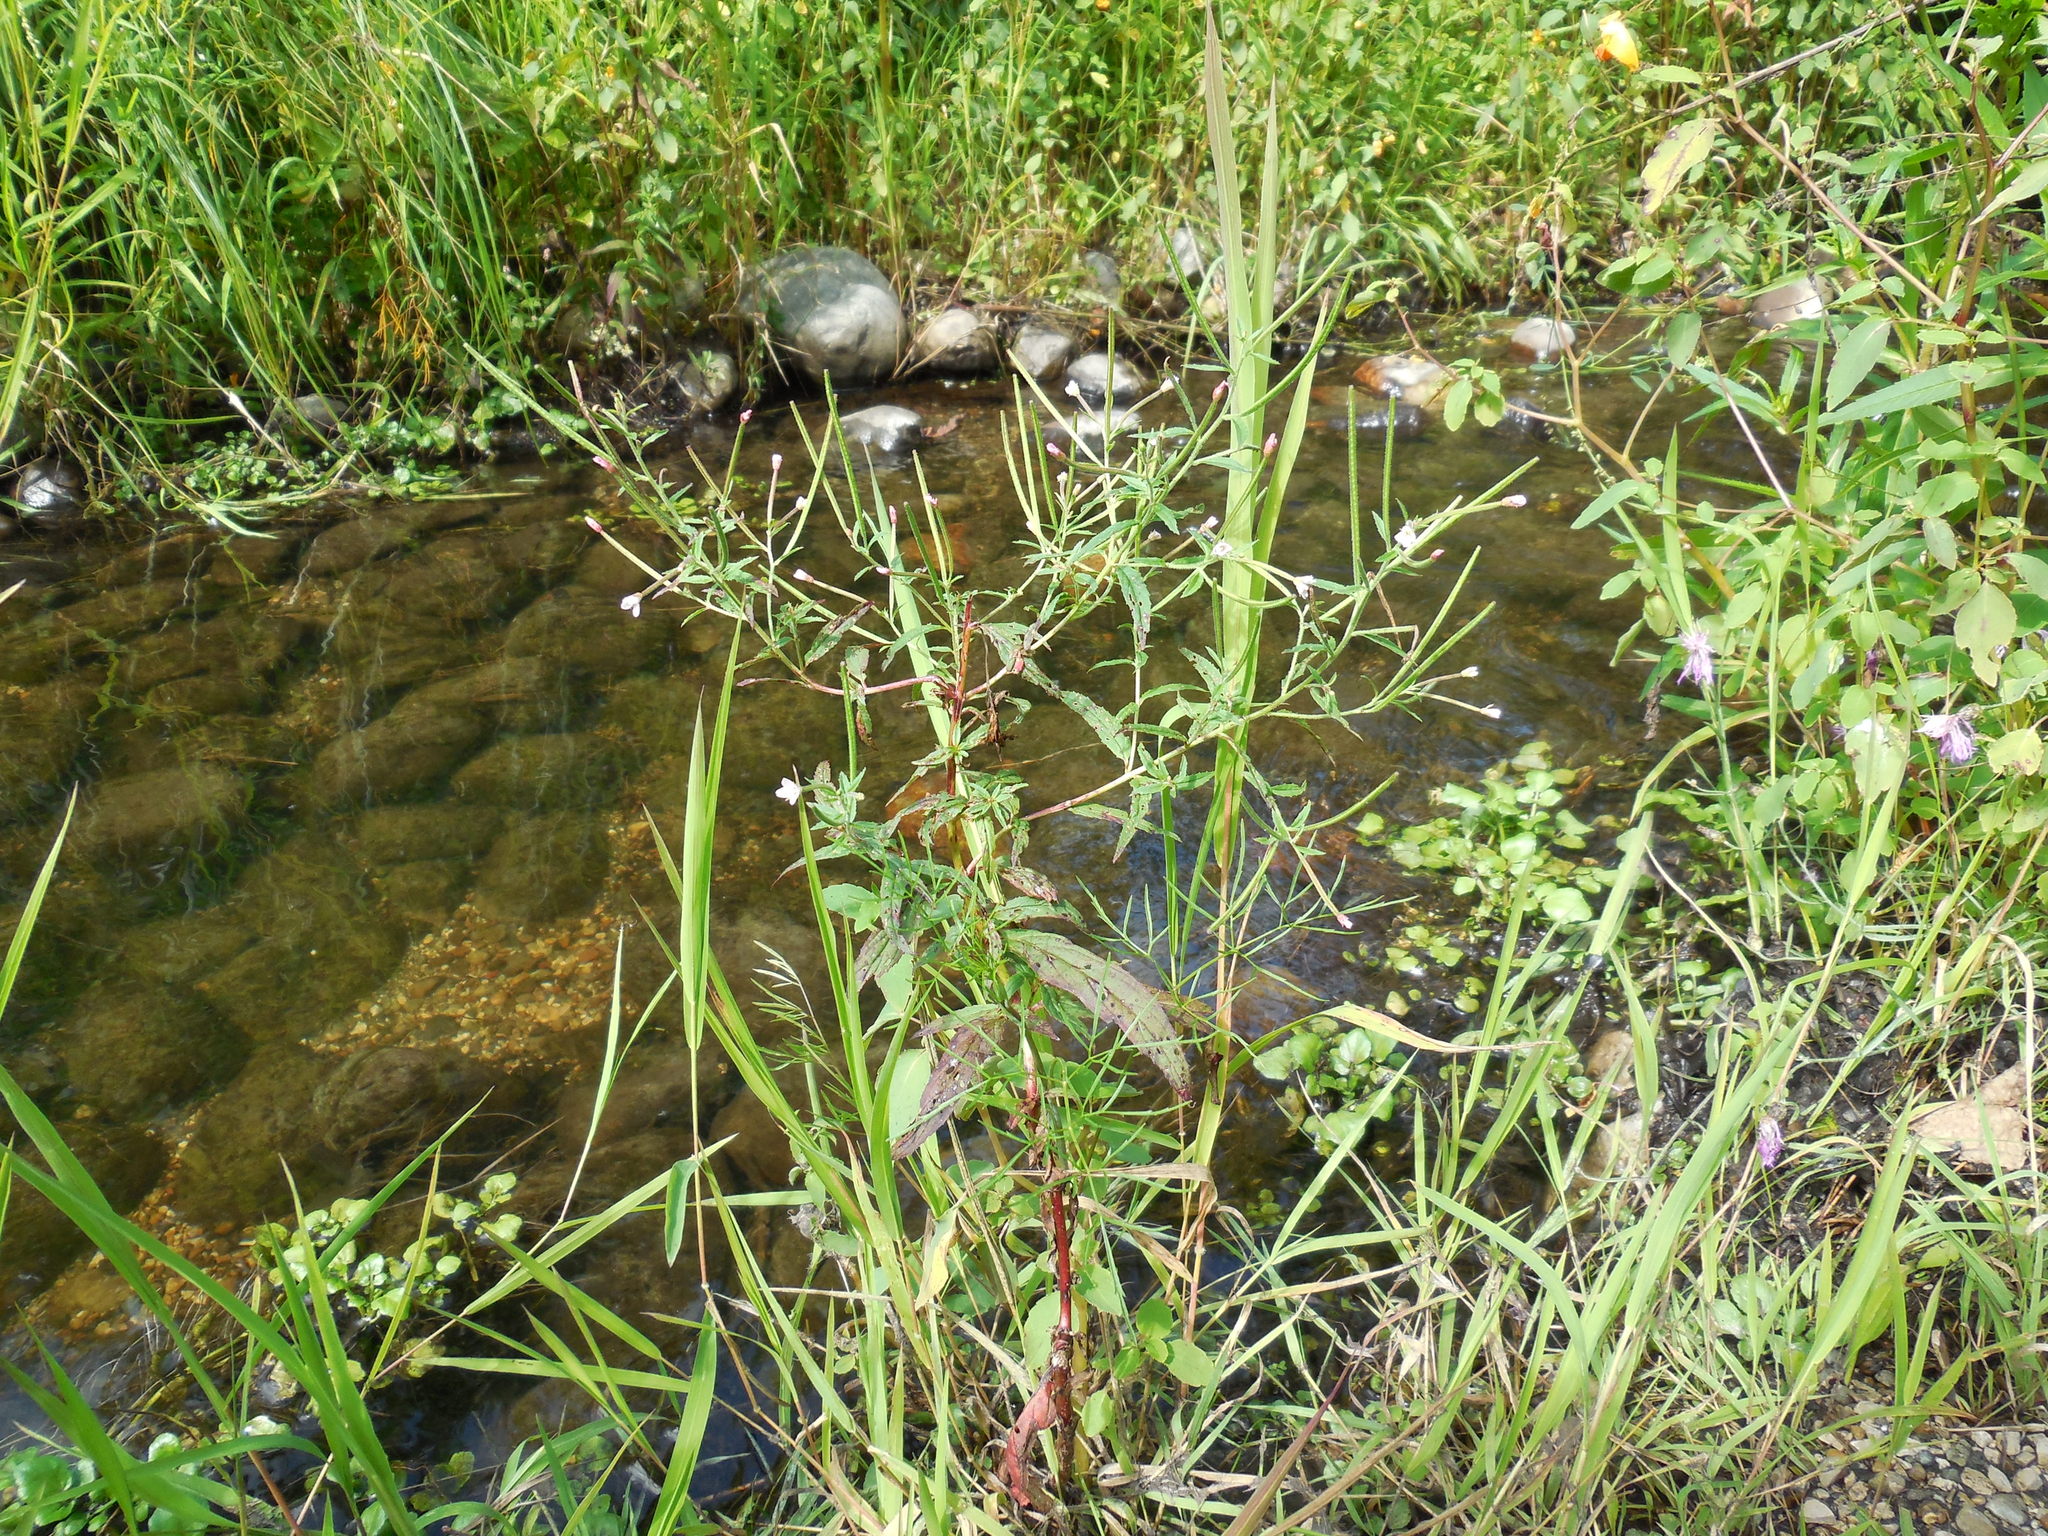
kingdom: Plantae
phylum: Tracheophyta
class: Magnoliopsida
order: Myrtales
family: Onagraceae
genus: Epilobium
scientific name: Epilobium coloratum
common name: Bronze willowherb
